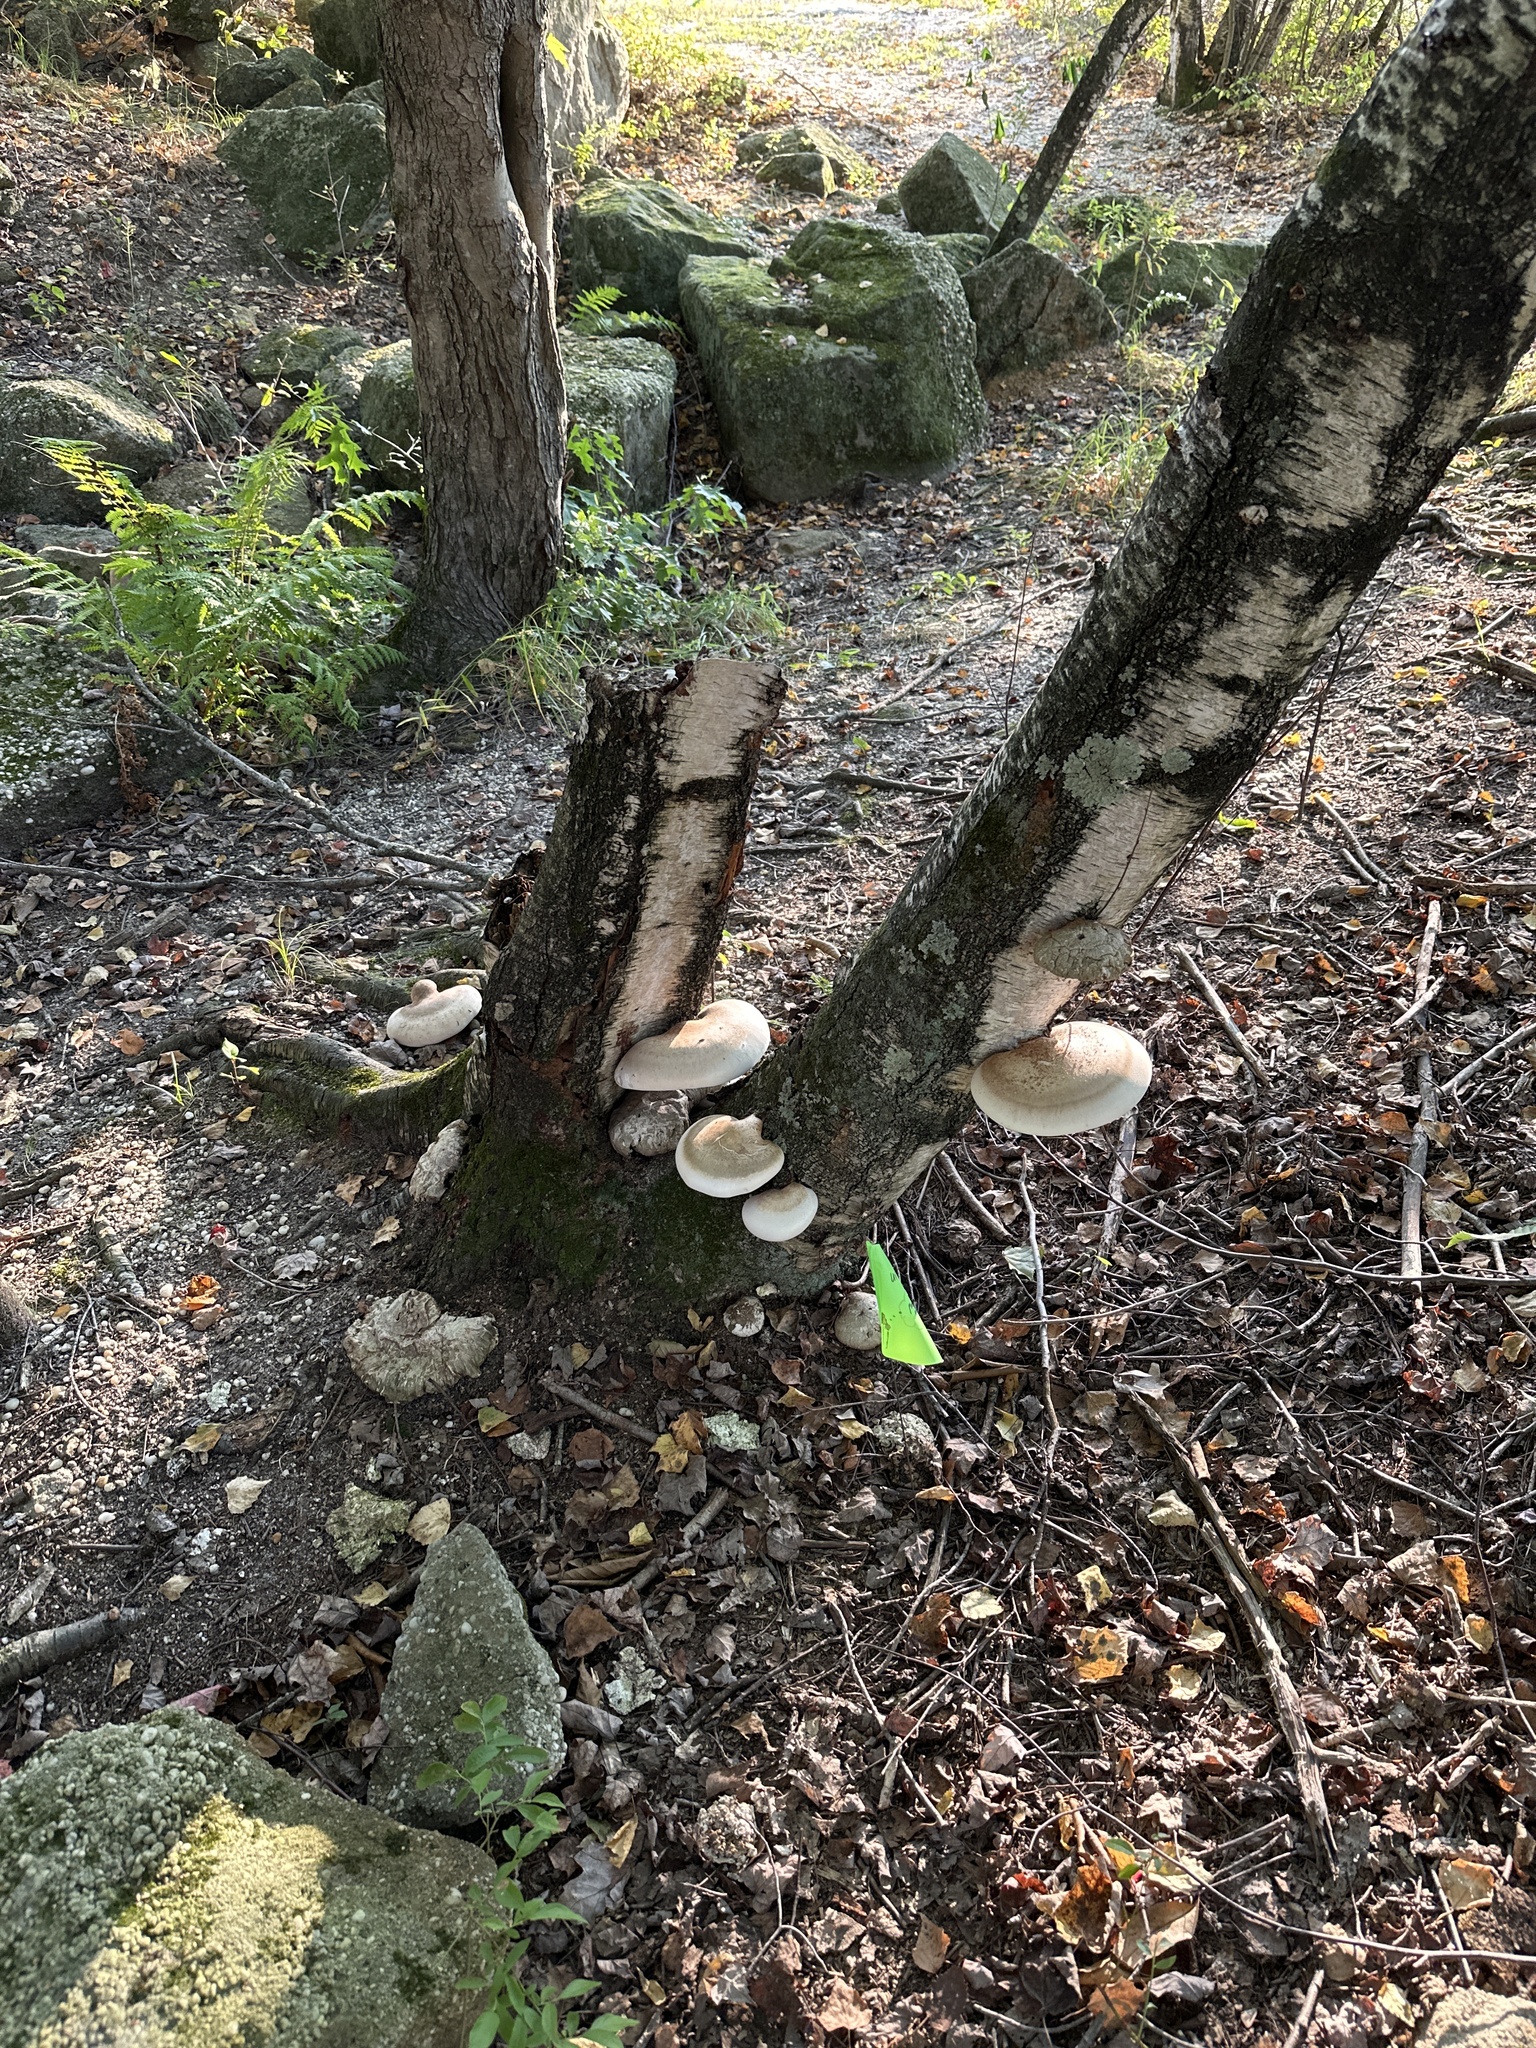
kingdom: Fungi
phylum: Basidiomycota
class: Agaricomycetes
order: Polyporales
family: Fomitopsidaceae
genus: Fomitopsis
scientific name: Fomitopsis betulina
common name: Birch polypore
